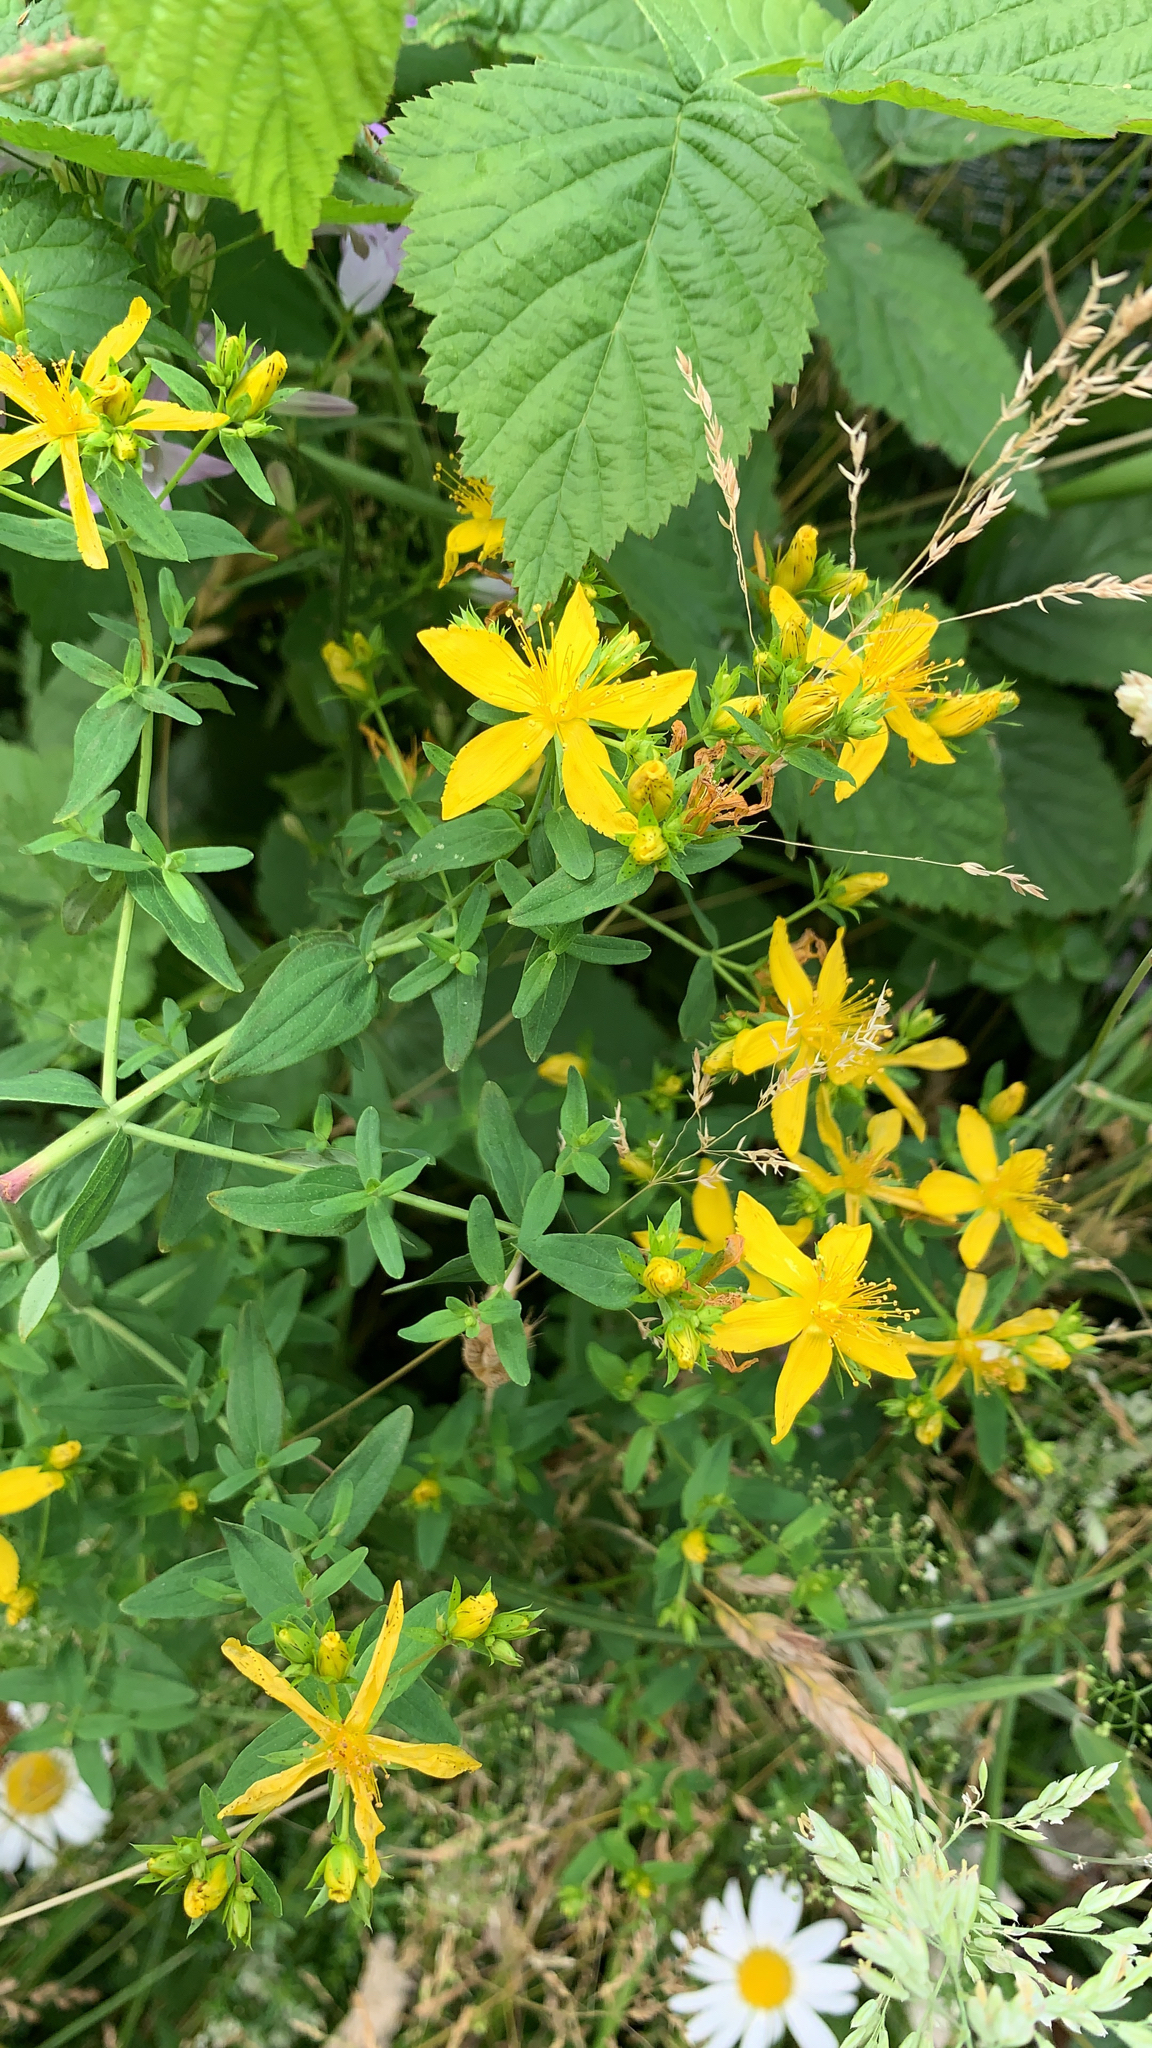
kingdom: Plantae
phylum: Tracheophyta
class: Magnoliopsida
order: Malpighiales
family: Hypericaceae
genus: Hypericum
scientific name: Hypericum perforatum
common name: Common st. johnswort
